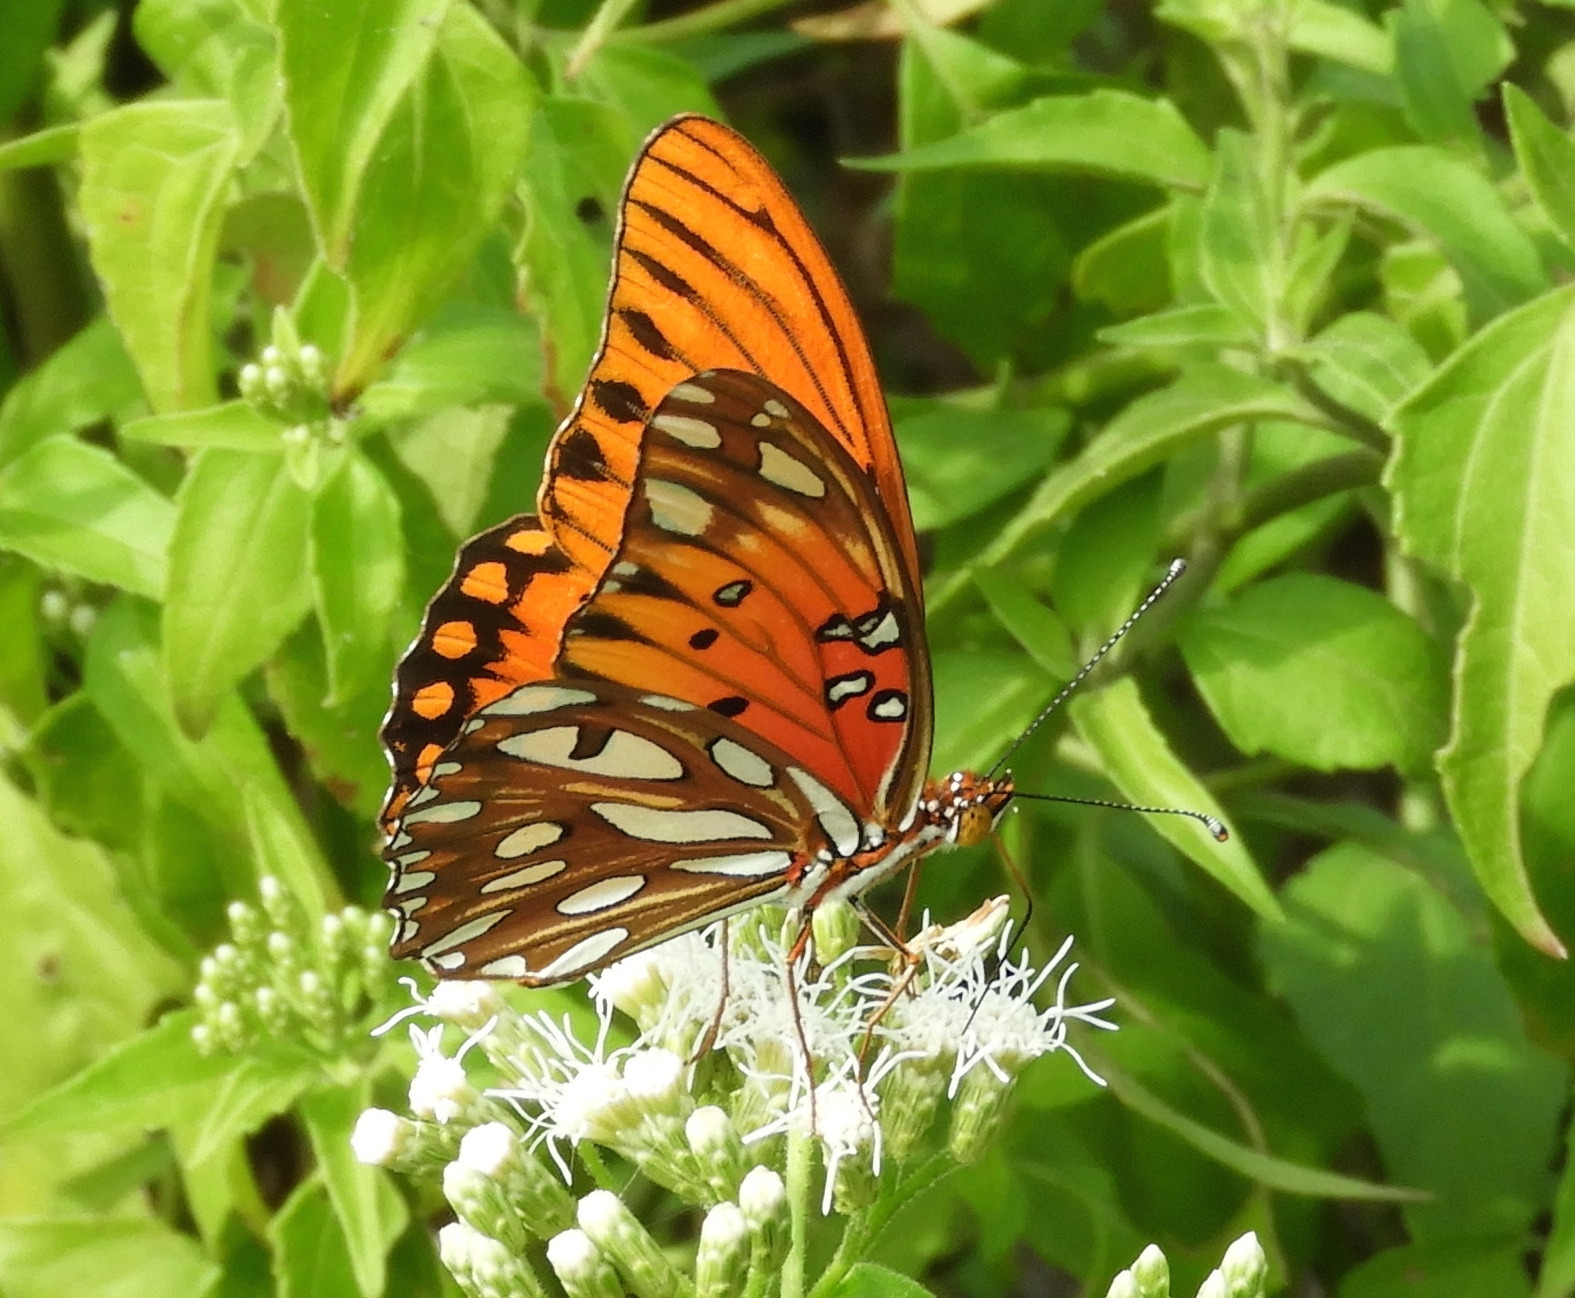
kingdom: Animalia
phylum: Arthropoda
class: Insecta
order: Lepidoptera
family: Nymphalidae
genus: Dione
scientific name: Dione vanillae
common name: Gulf fritillary
